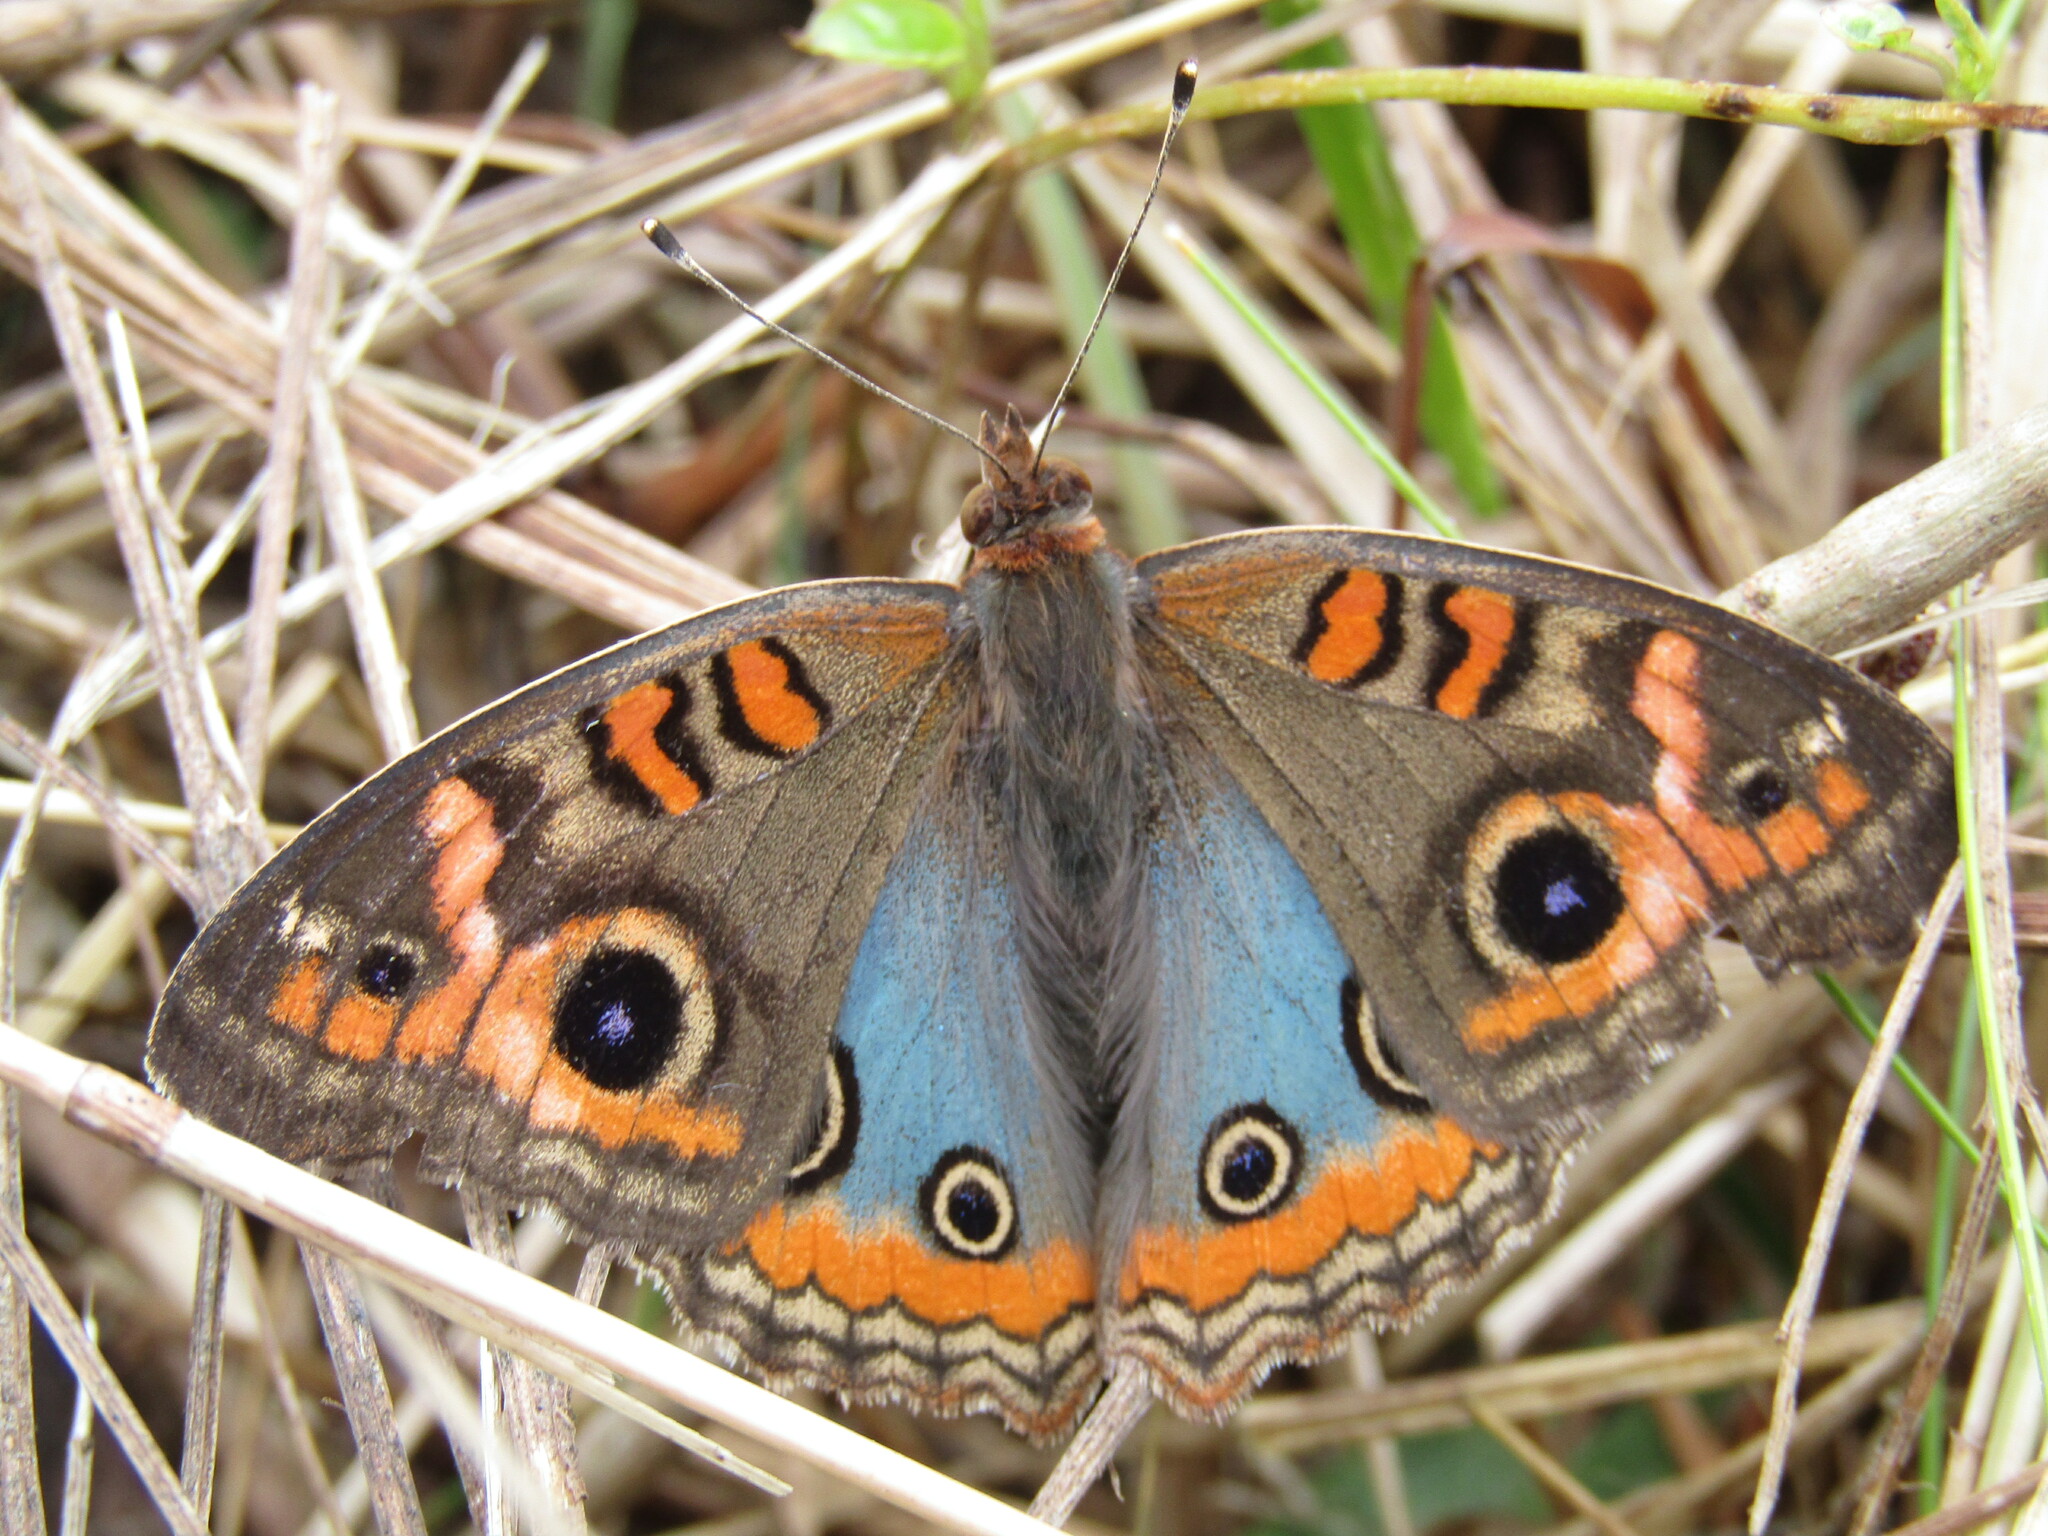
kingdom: Animalia
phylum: Arthropoda
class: Insecta
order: Lepidoptera
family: Nymphalidae
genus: Junonia
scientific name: Junonia lavinia
